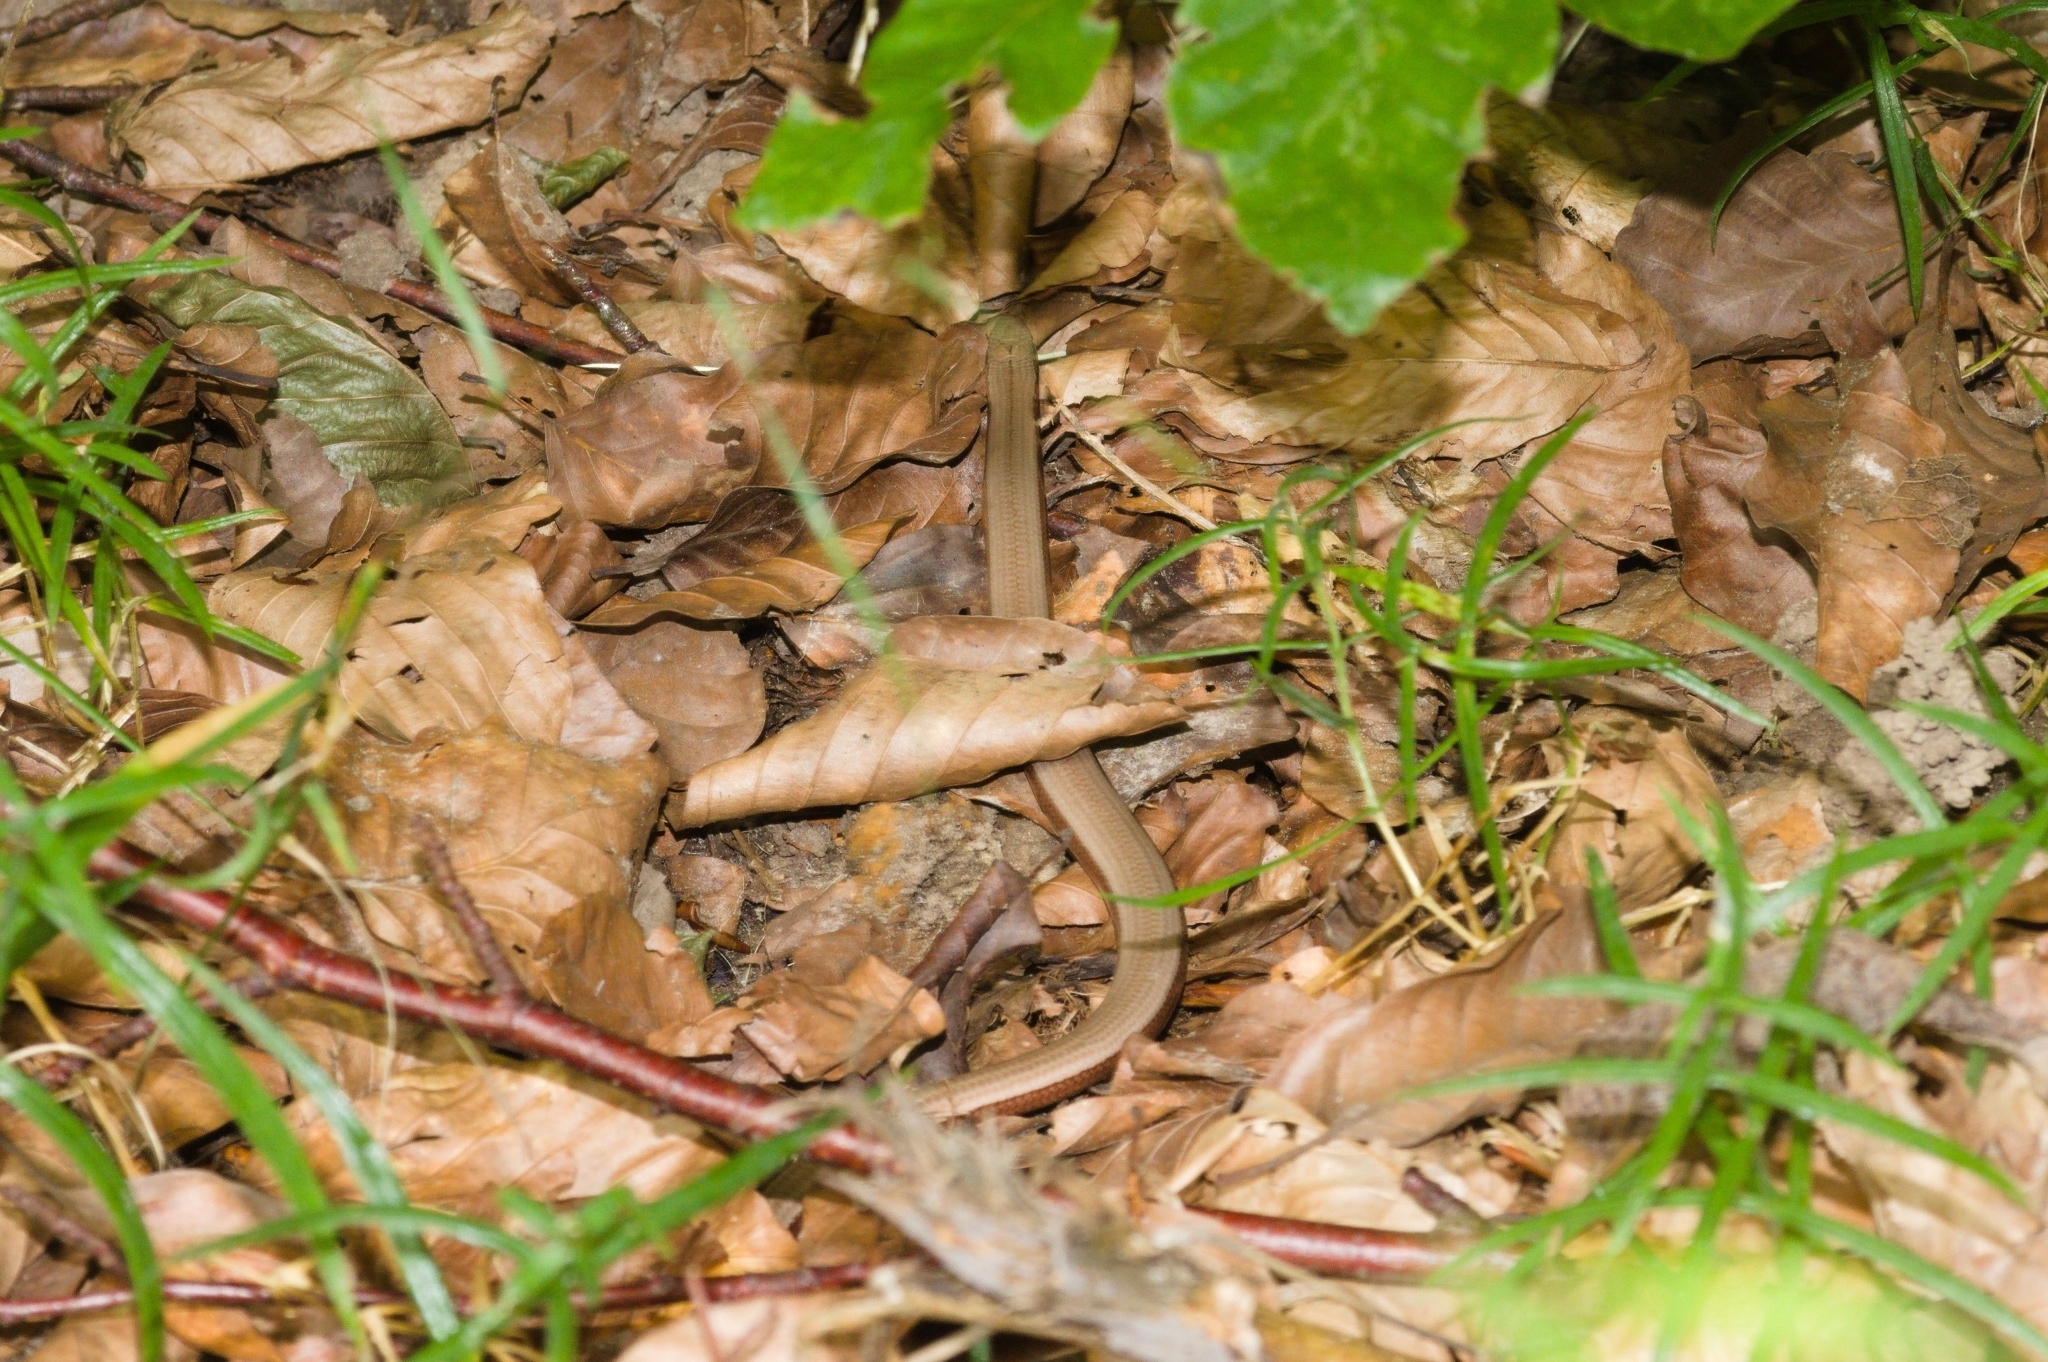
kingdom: Animalia
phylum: Chordata
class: Squamata
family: Anguidae
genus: Anguis
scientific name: Anguis fragilis
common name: Slow worm
